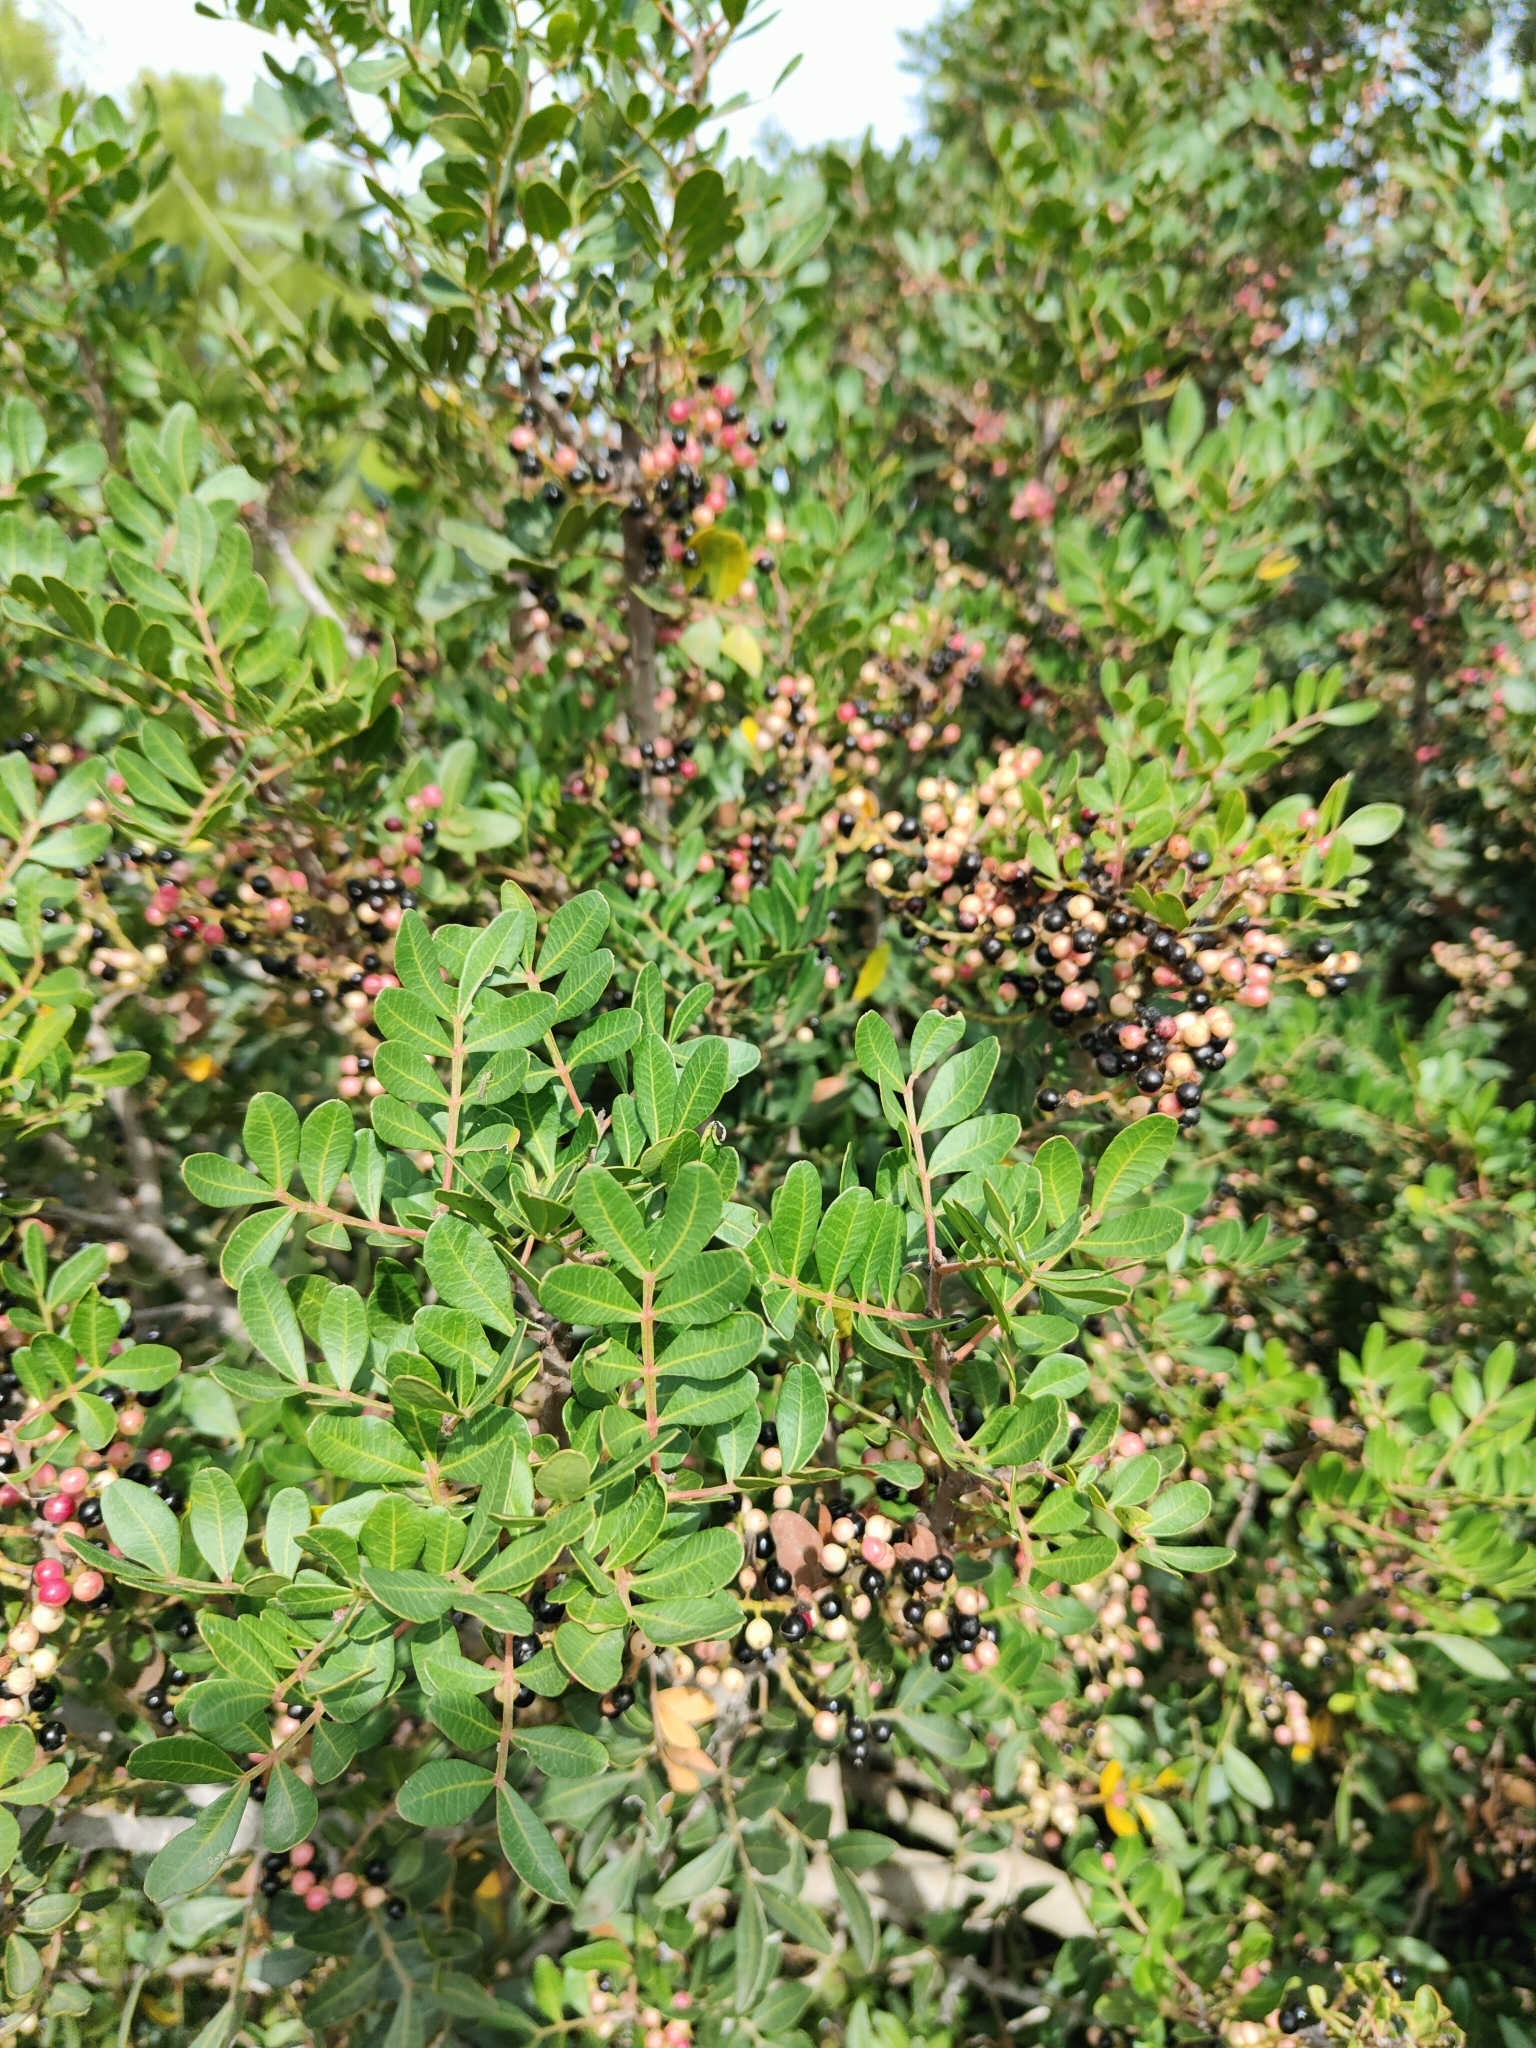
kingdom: Plantae
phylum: Tracheophyta
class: Magnoliopsida
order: Sapindales
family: Anacardiaceae
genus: Pistacia
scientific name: Pistacia lentiscus
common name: Lentisk
